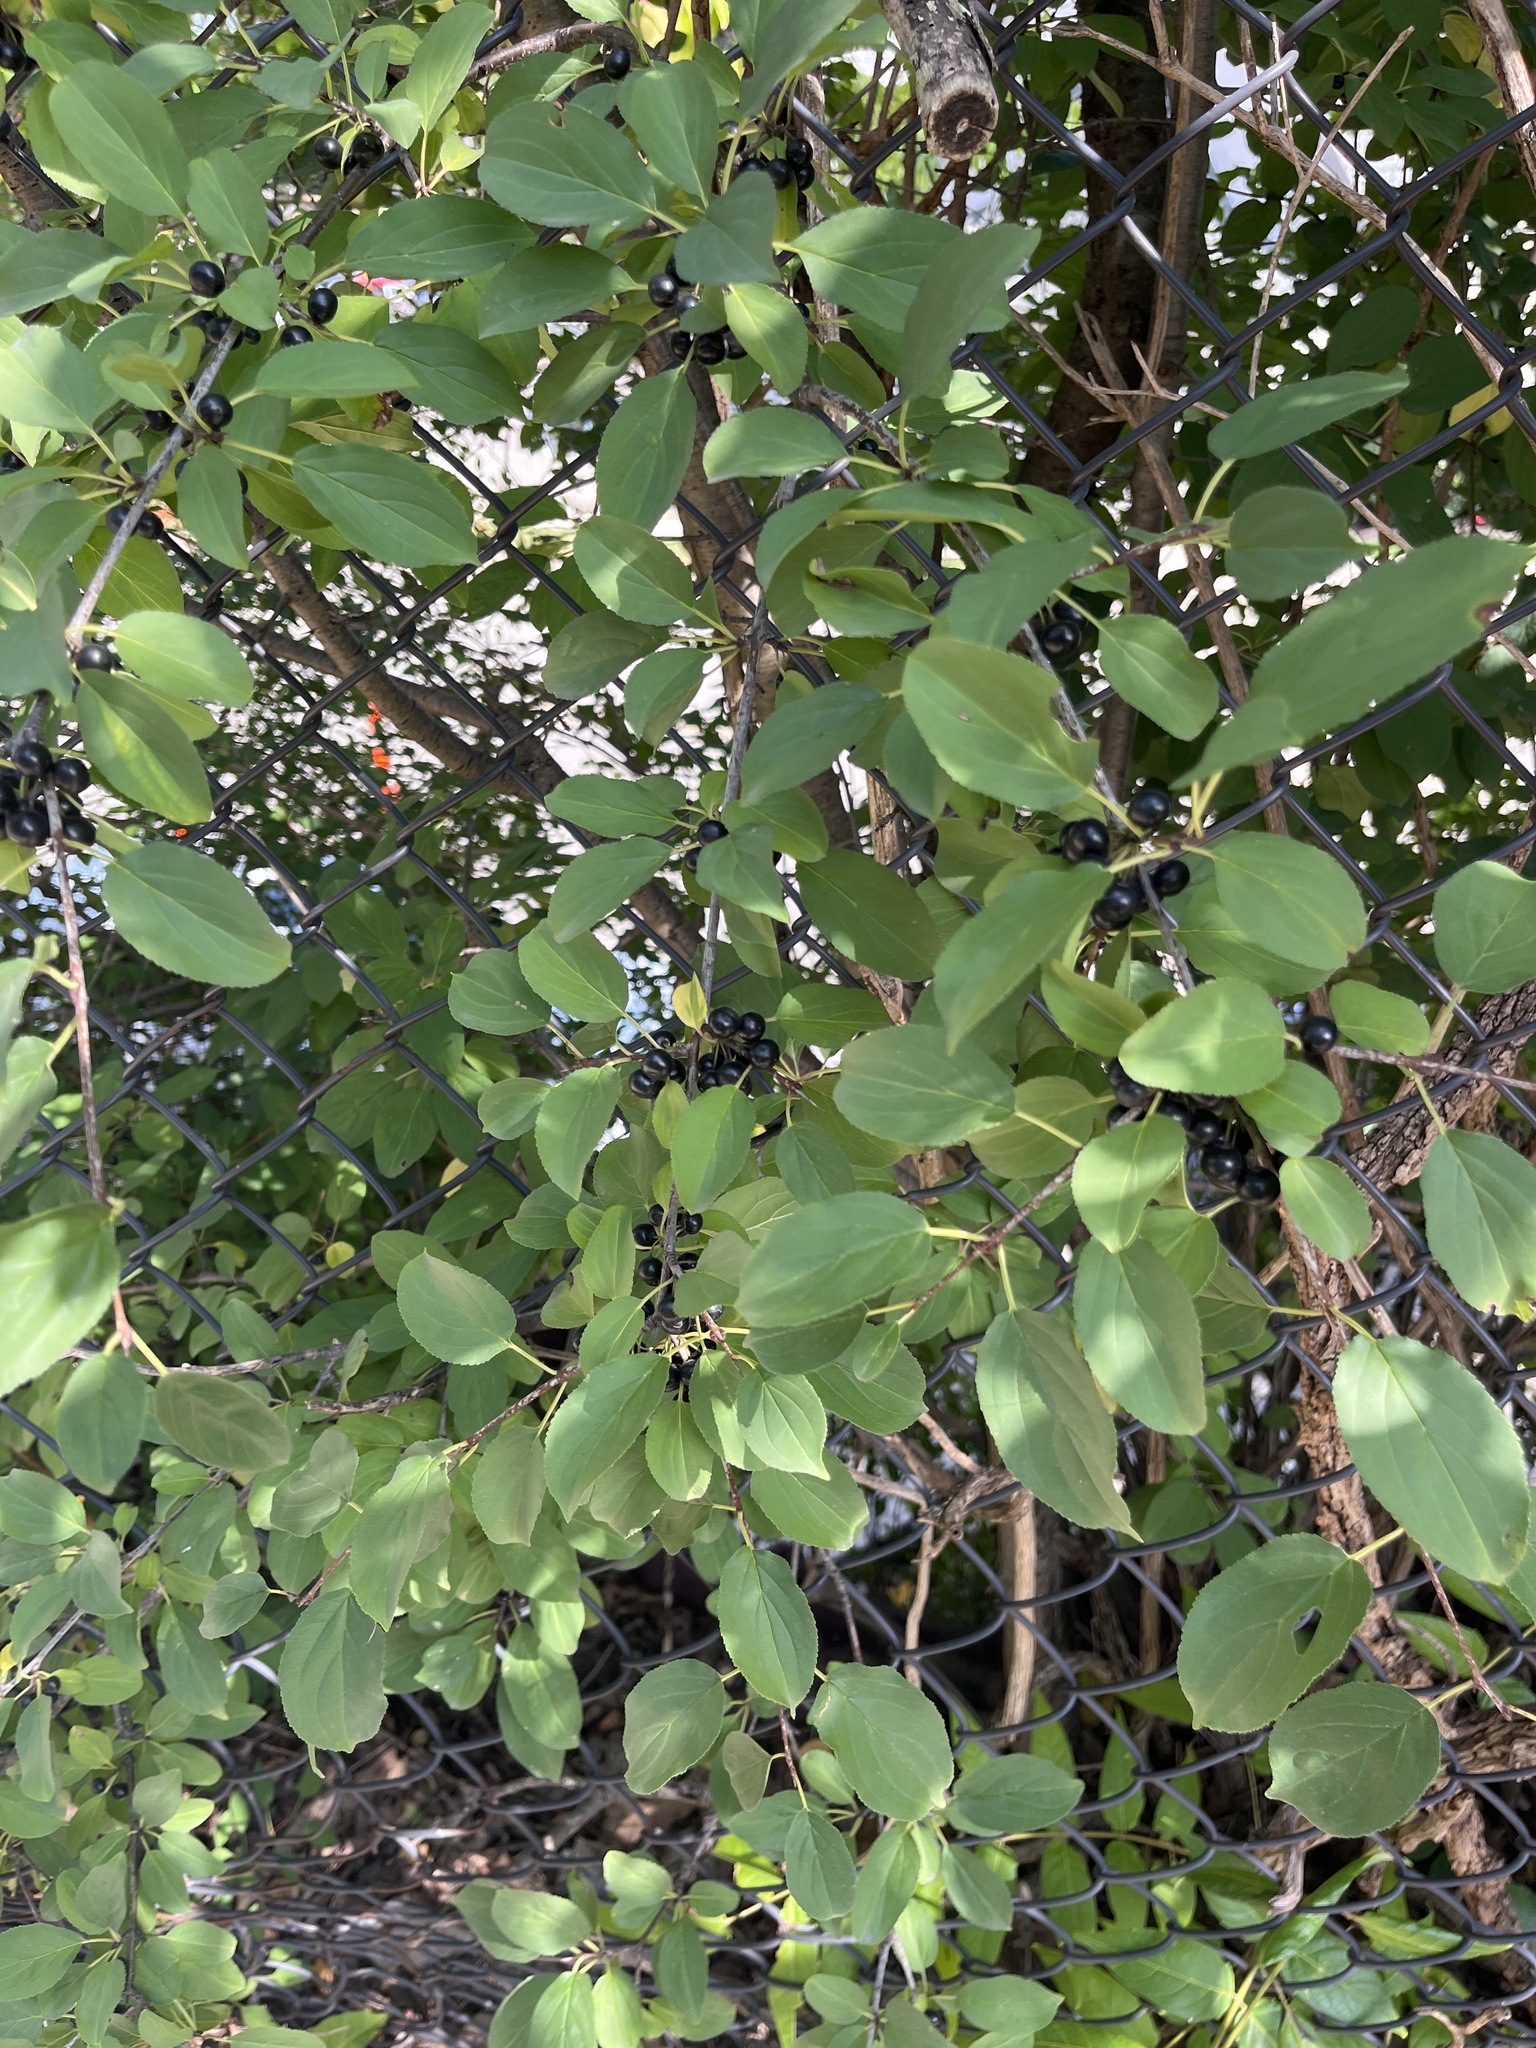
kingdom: Plantae
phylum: Tracheophyta
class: Magnoliopsida
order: Rosales
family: Rhamnaceae
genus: Rhamnus
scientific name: Rhamnus cathartica
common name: Common buckthorn
